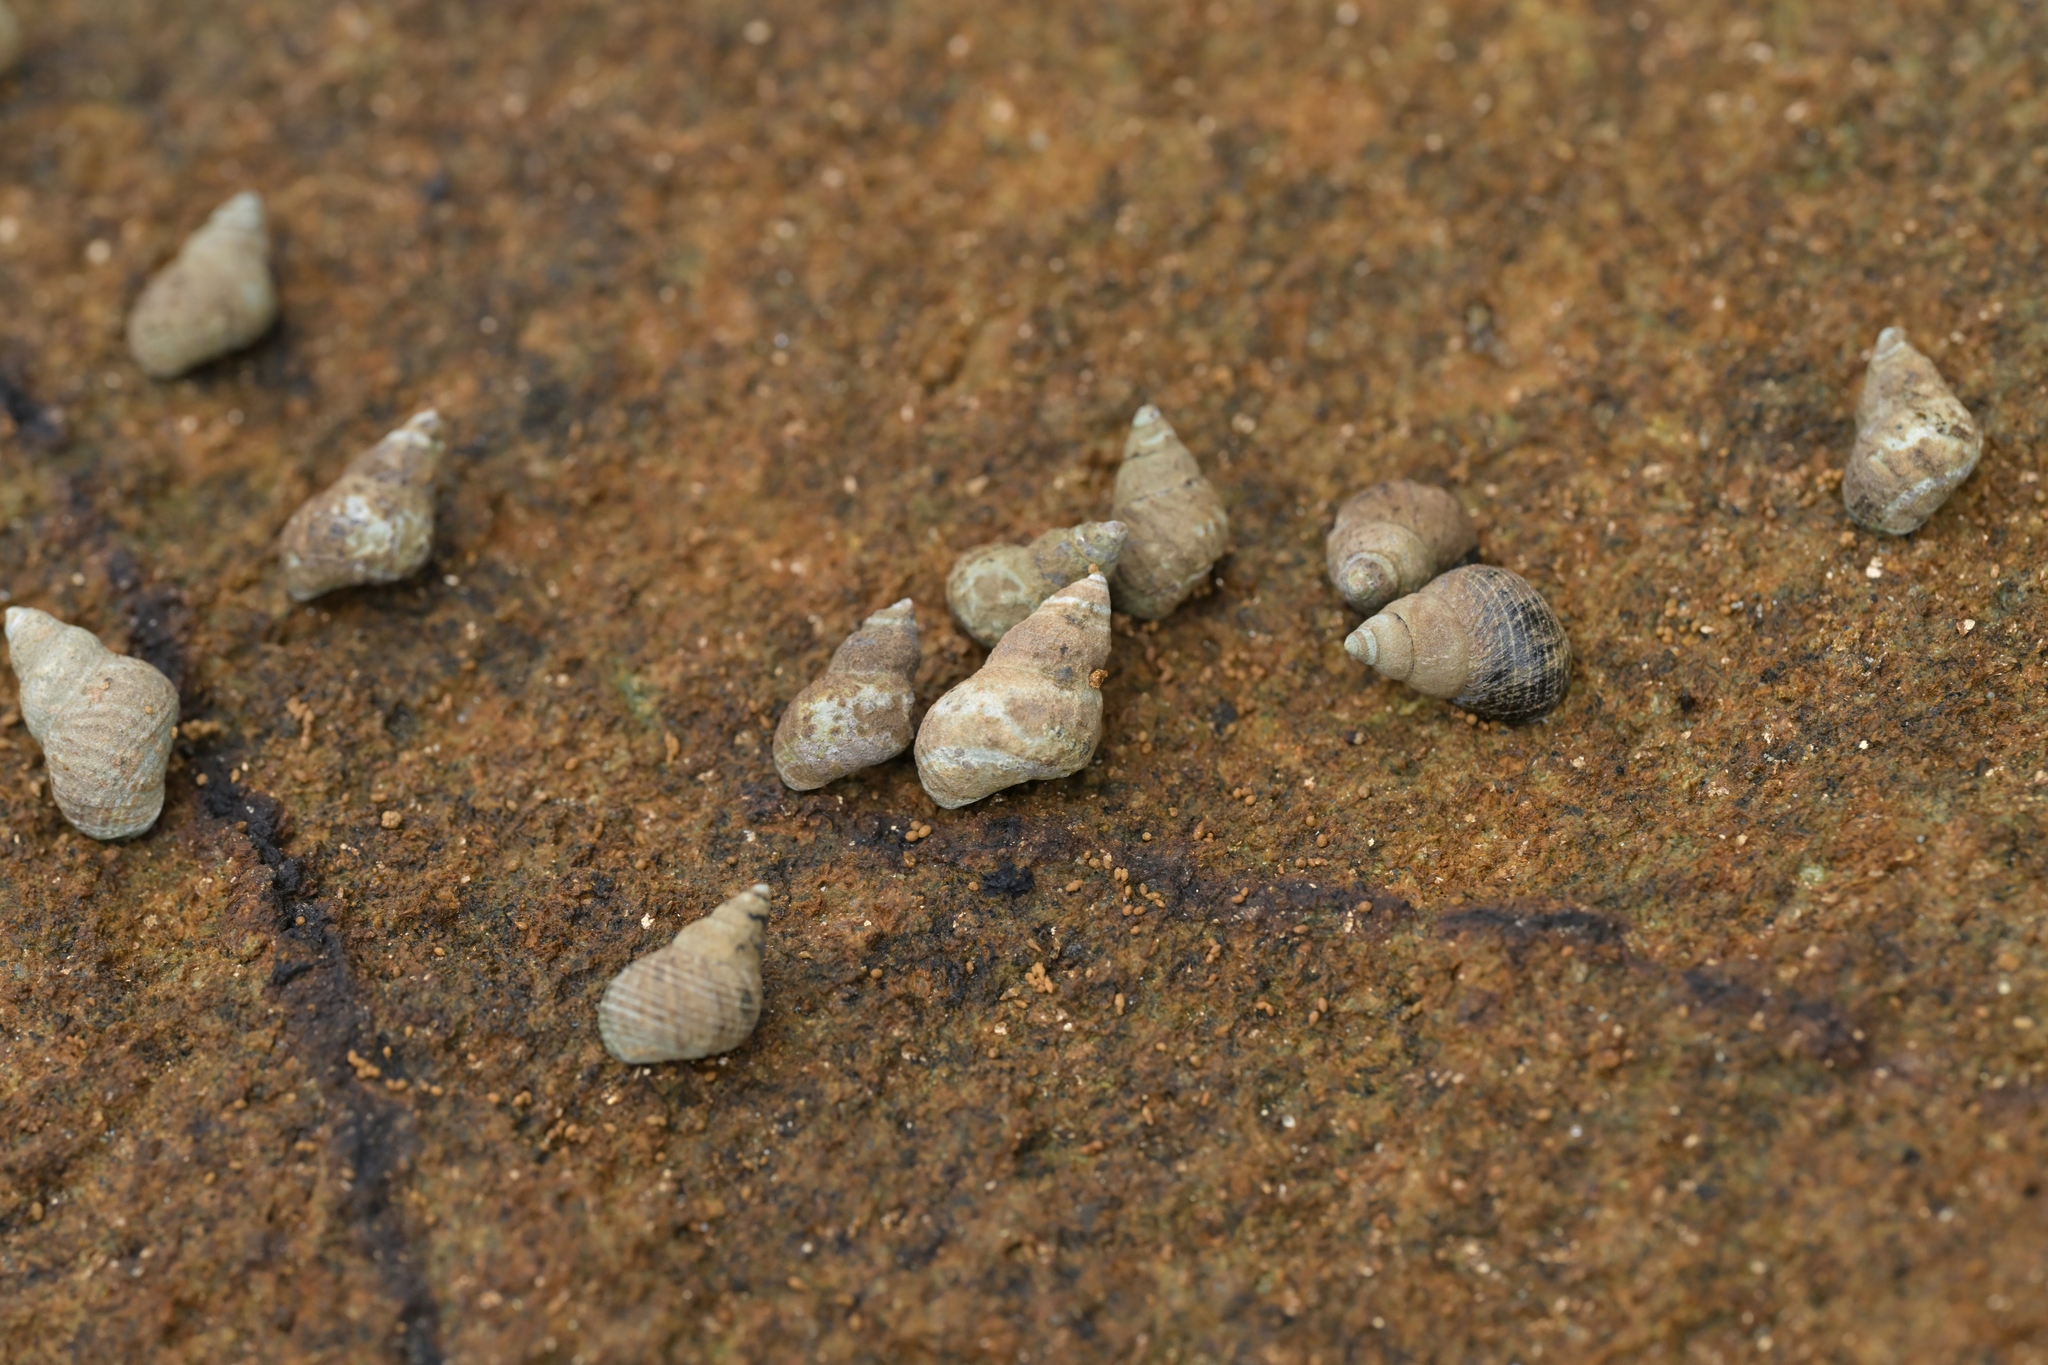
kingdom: Animalia
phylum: Mollusca
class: Gastropoda
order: Littorinimorpha
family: Littorinidae
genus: Austrolittorina
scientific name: Austrolittorina cincta
